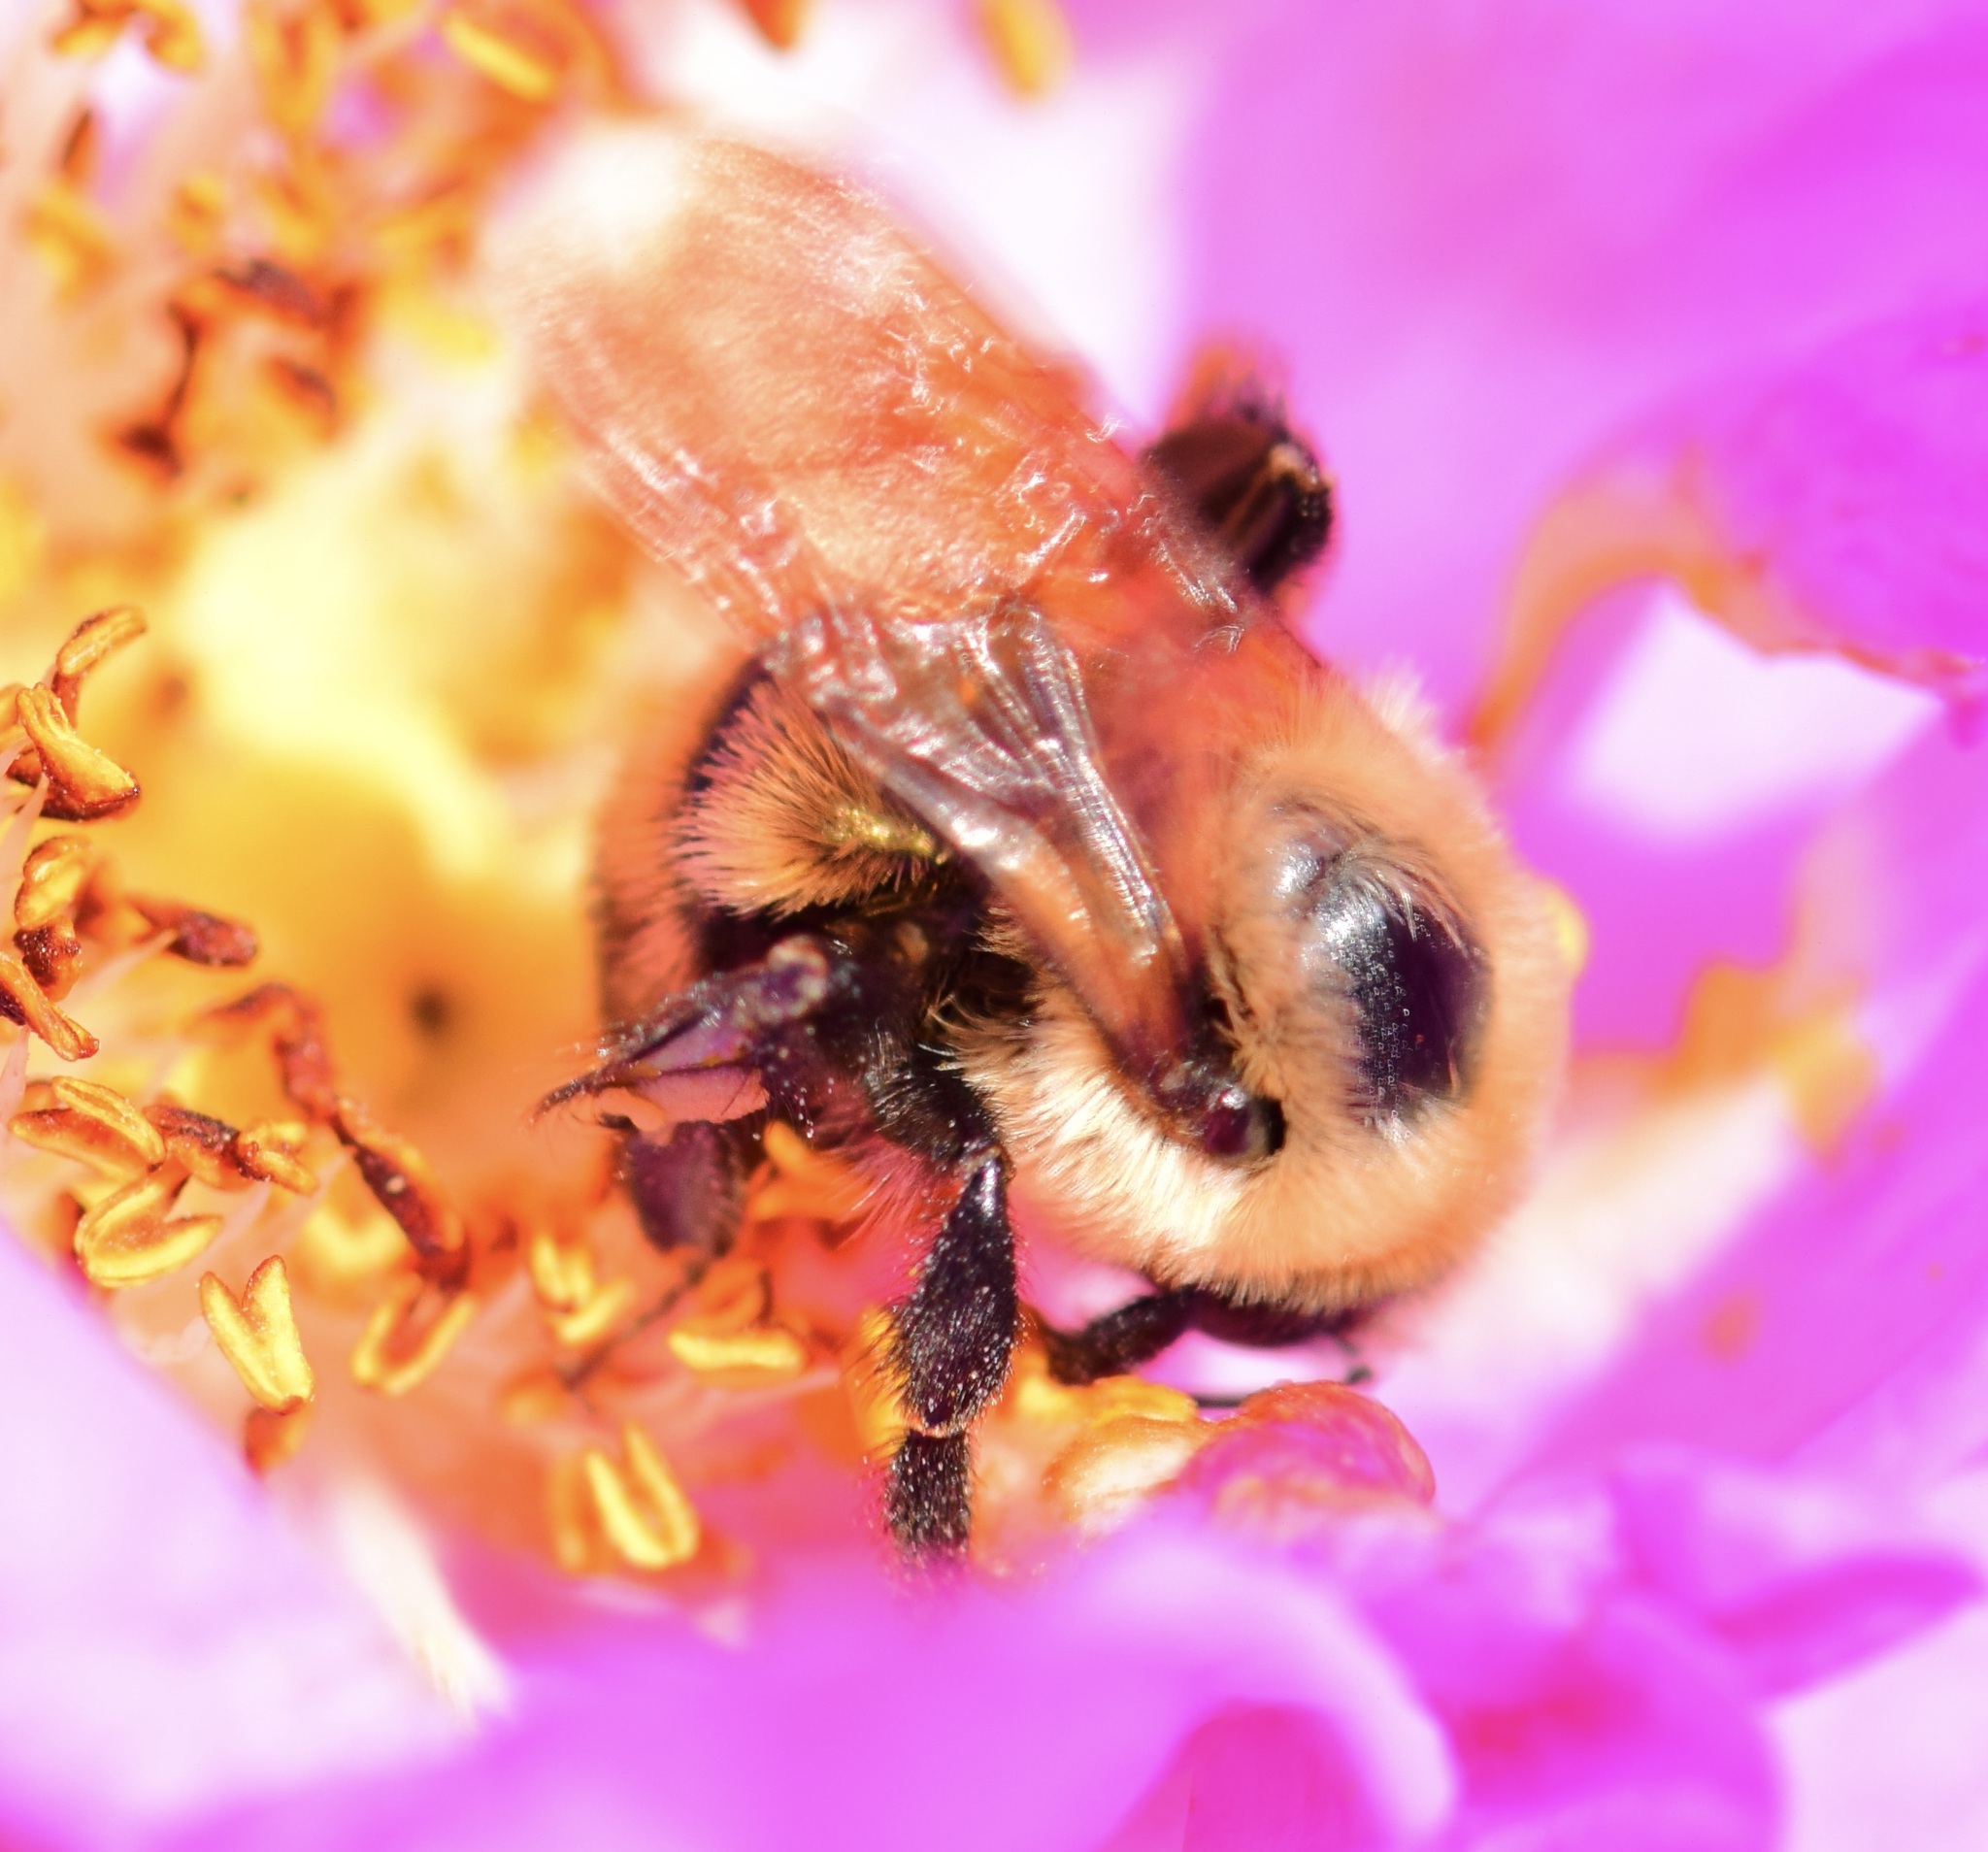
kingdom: Animalia
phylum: Arthropoda
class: Insecta
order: Hymenoptera
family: Apidae
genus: Bombus
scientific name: Bombus griseocollis
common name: Brown-belted bumble bee
